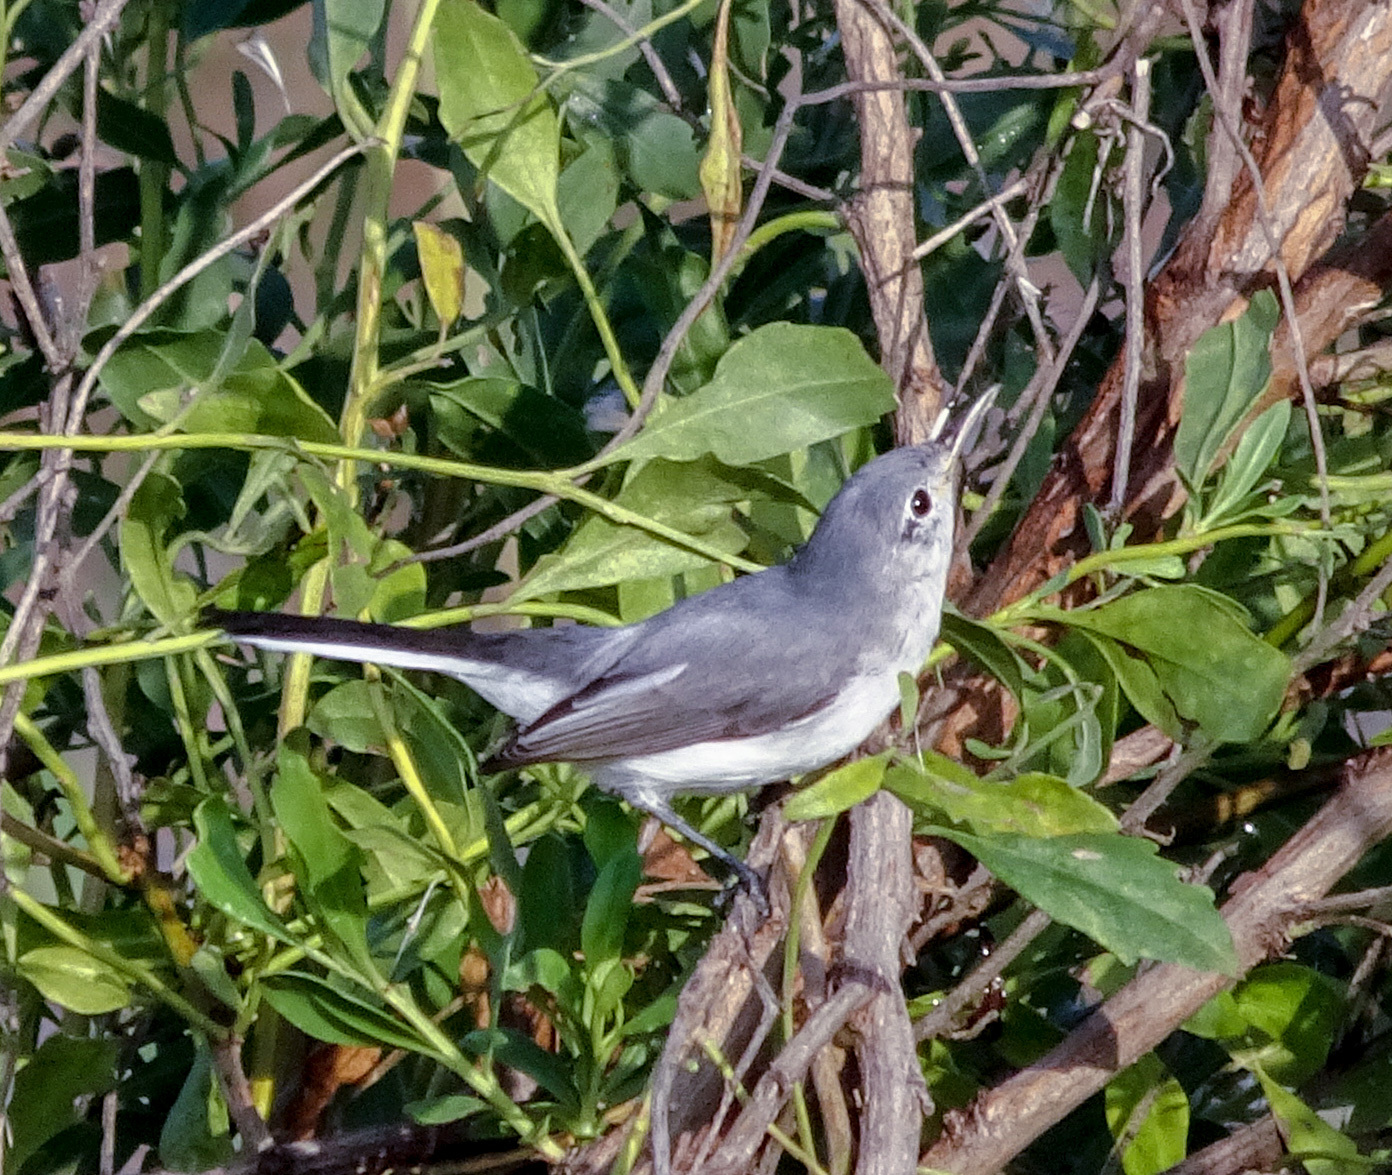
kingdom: Animalia
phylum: Chordata
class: Aves
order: Passeriformes
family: Polioptilidae
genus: Polioptila
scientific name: Polioptila caerulea
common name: Blue-gray gnatcatcher
